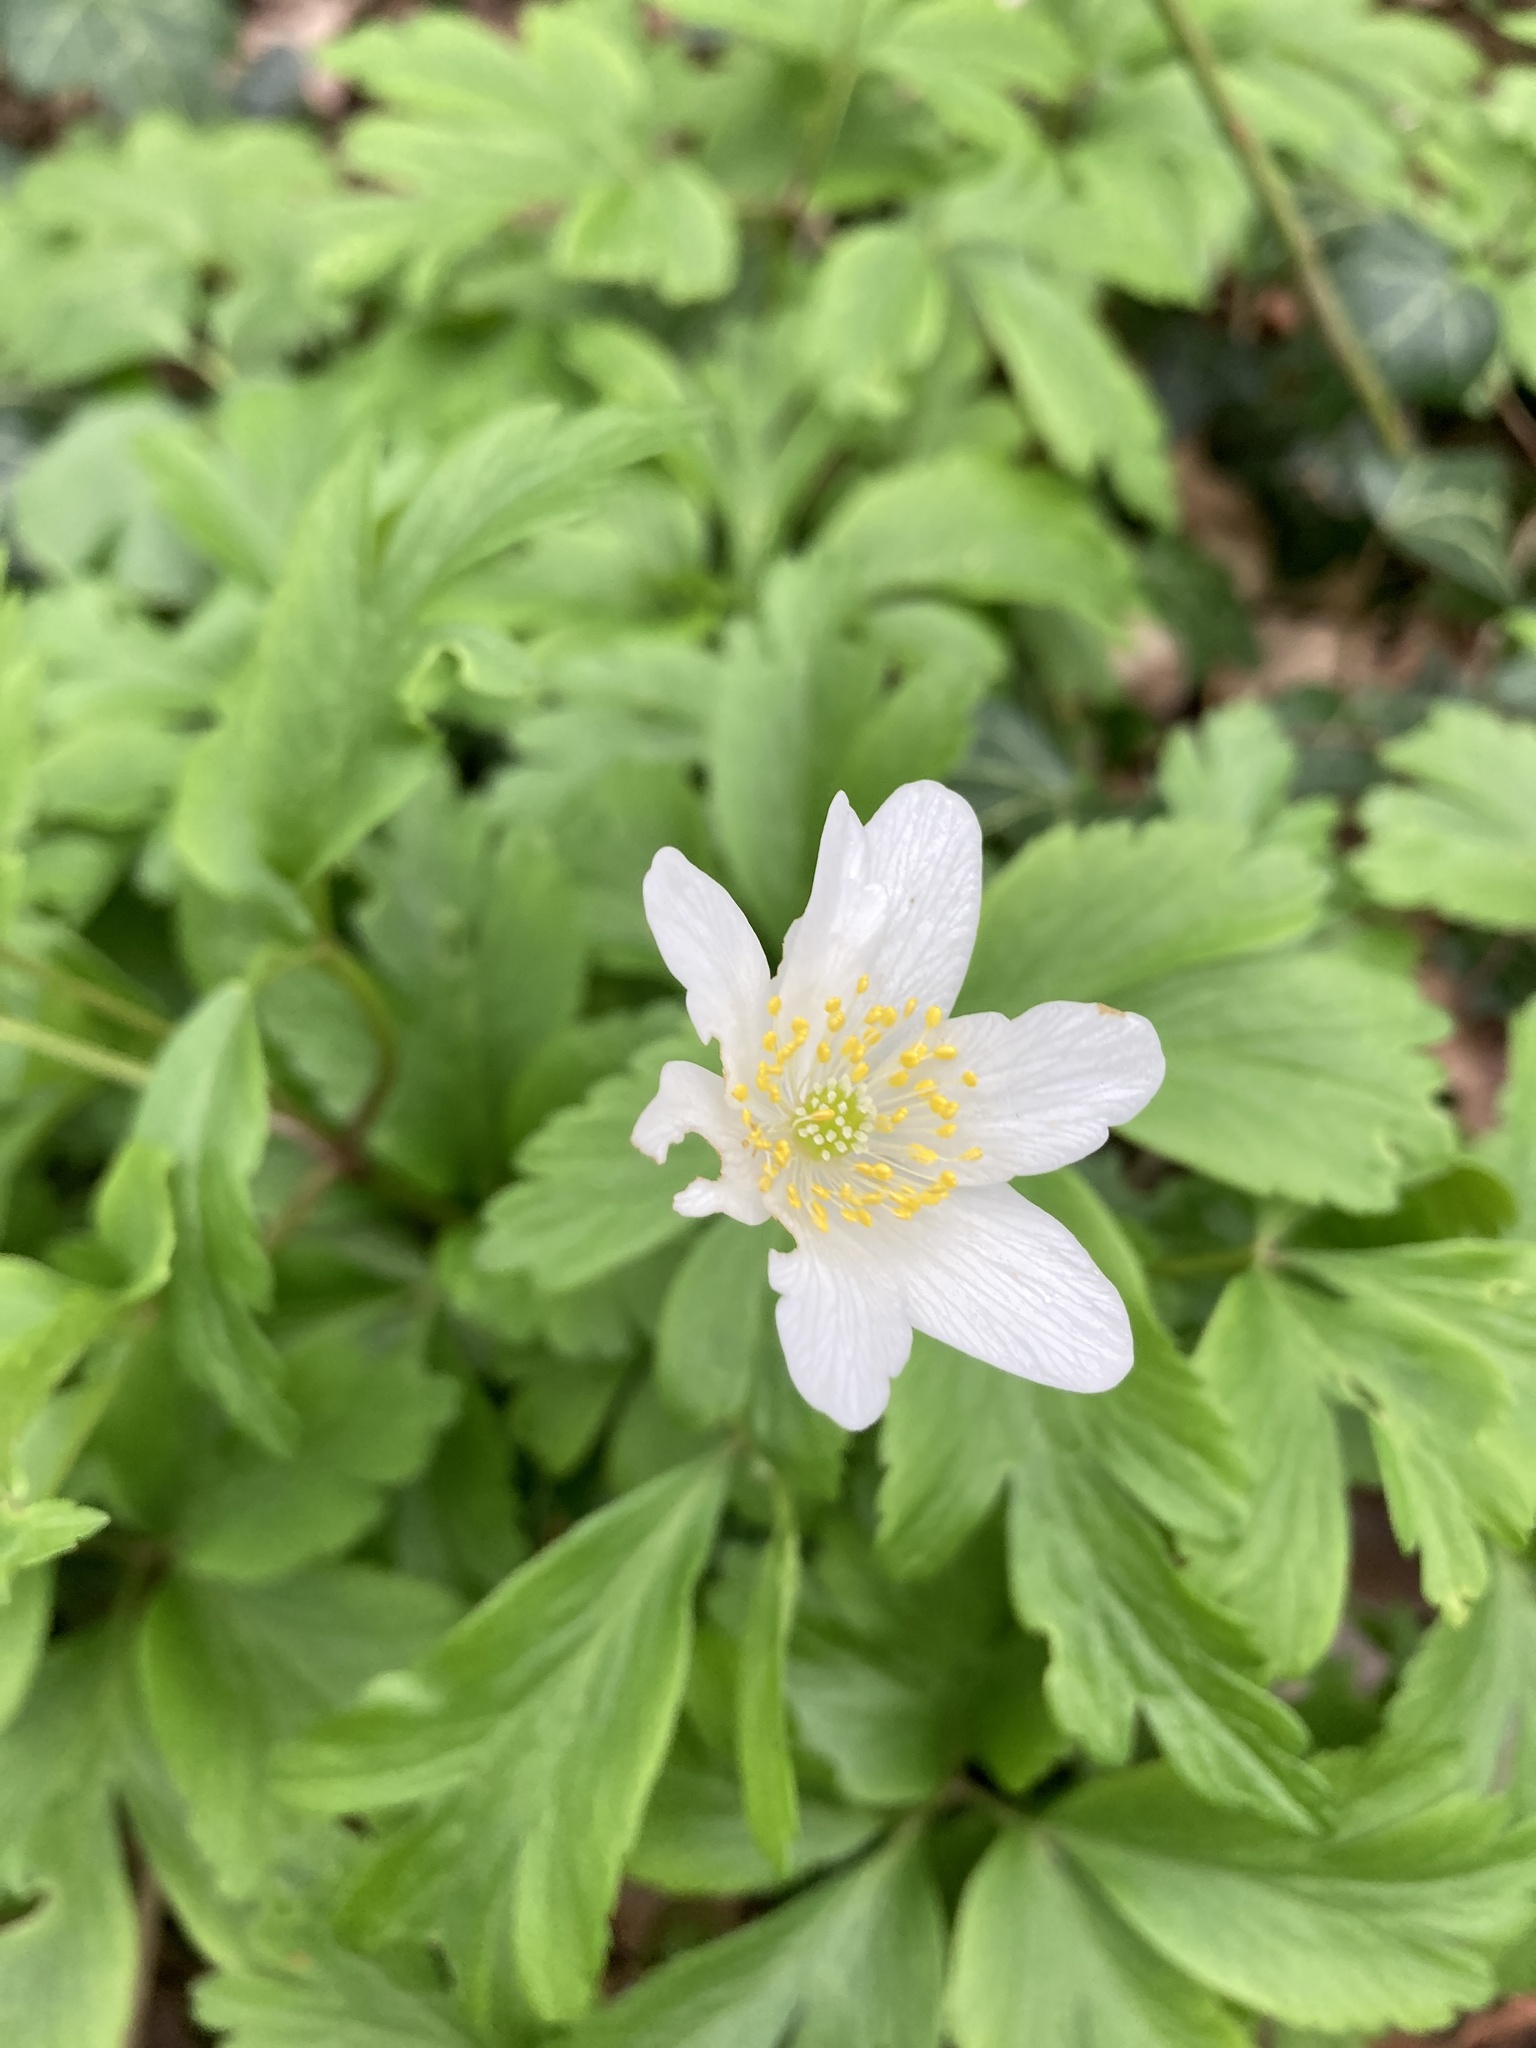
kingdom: Plantae
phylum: Tracheophyta
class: Magnoliopsida
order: Ranunculales
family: Ranunculaceae
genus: Anemone
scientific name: Anemone nemorosa
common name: Wood anemone
